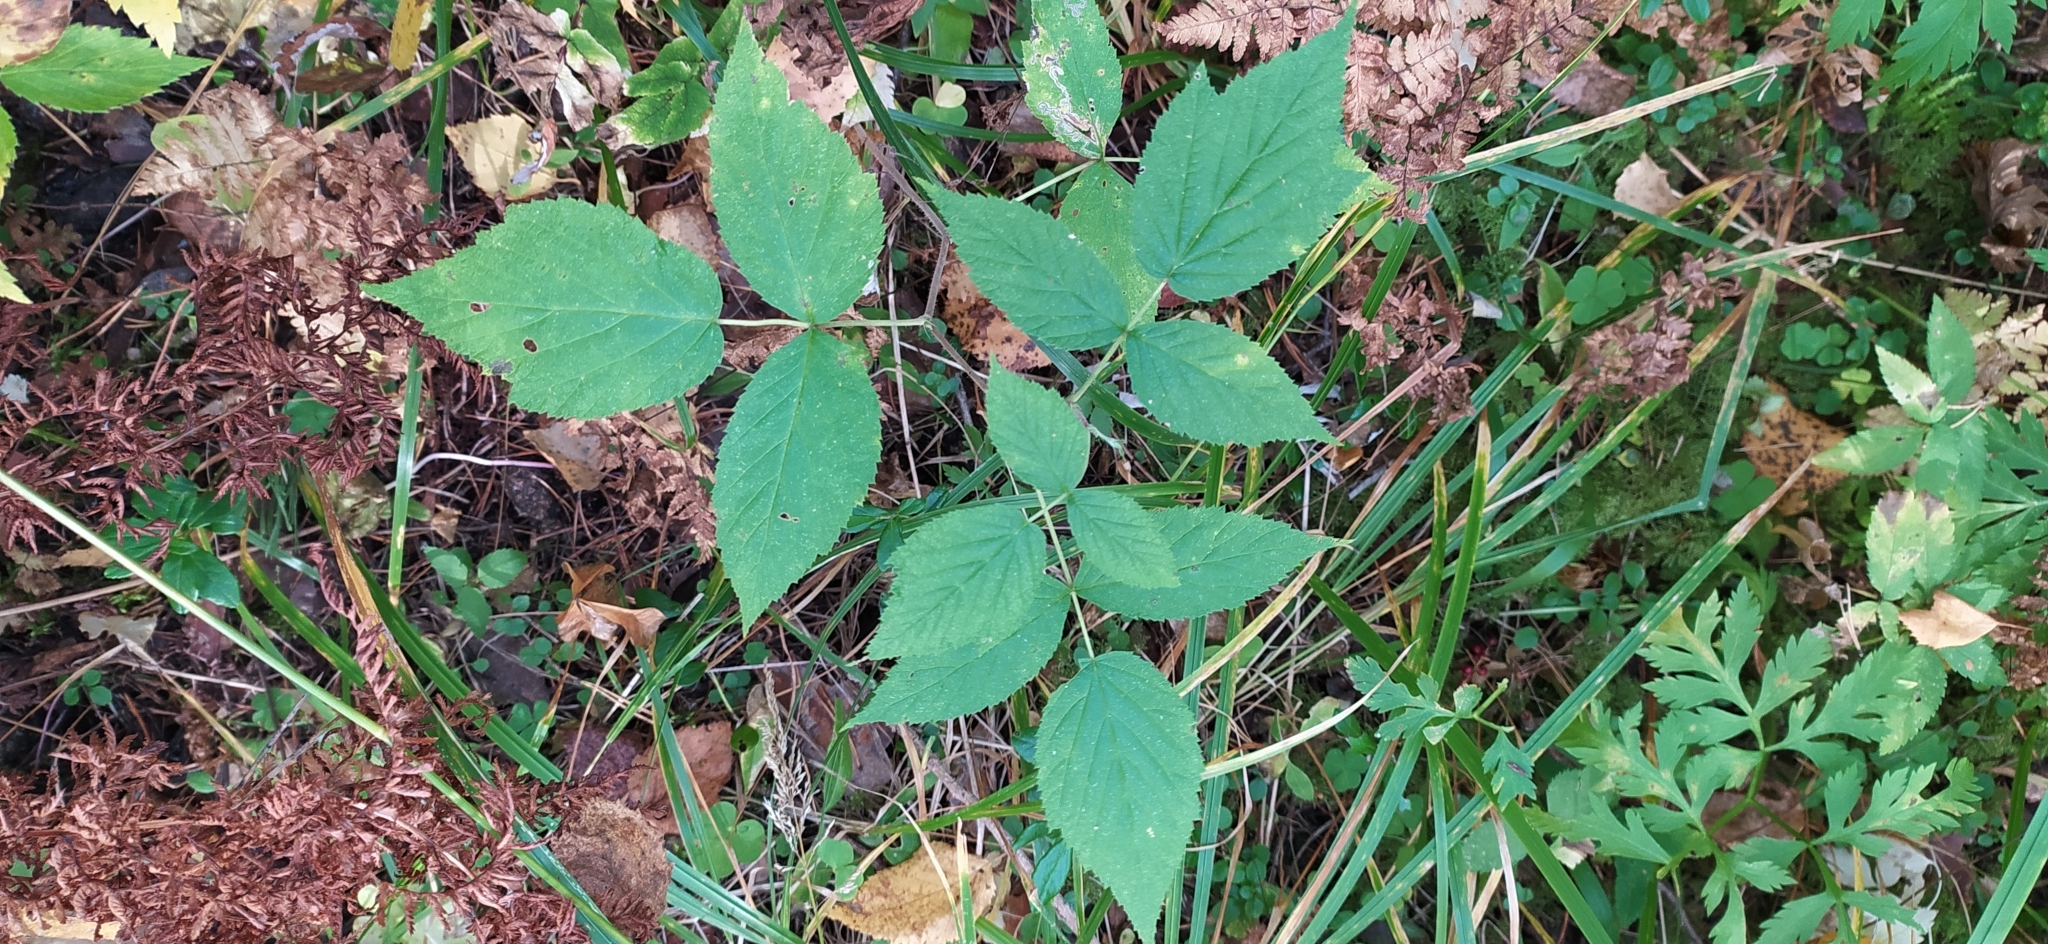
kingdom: Plantae
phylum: Tracheophyta
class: Magnoliopsida
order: Rosales
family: Rosaceae
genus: Rubus
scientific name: Rubus idaeus
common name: Raspberry
